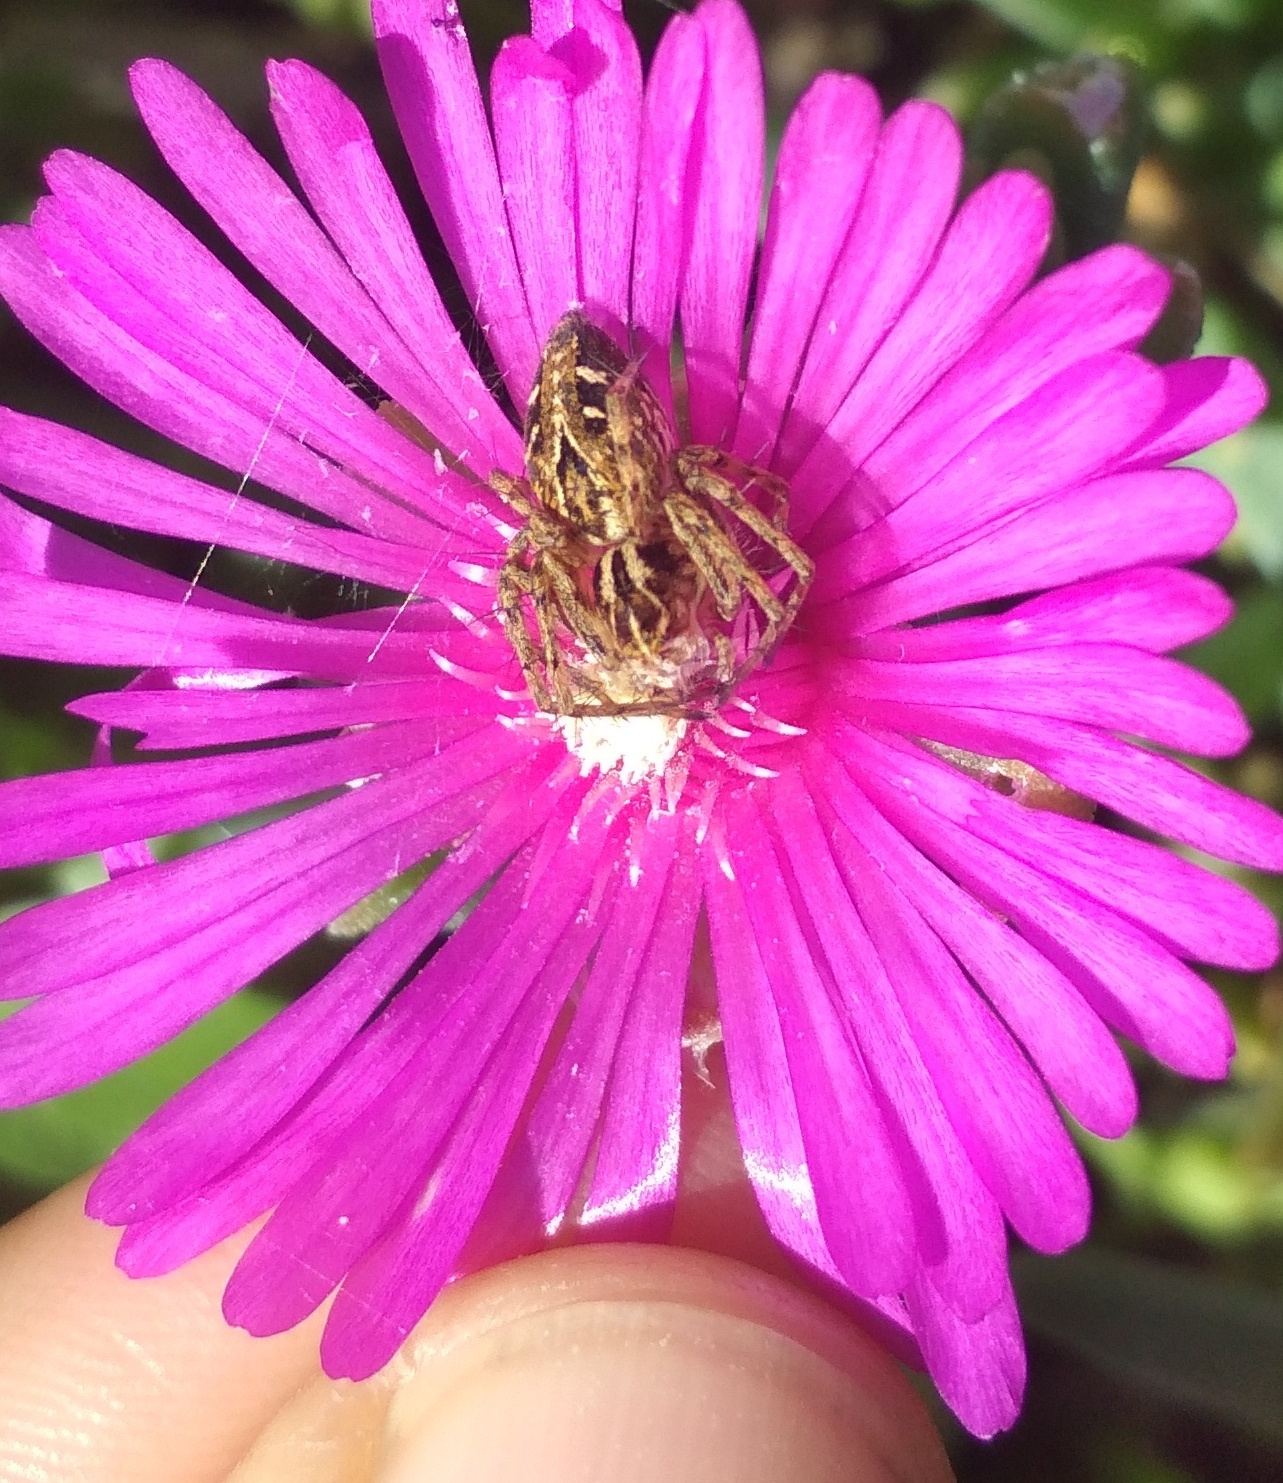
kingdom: Animalia
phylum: Arthropoda
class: Arachnida
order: Araneae
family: Oxyopidae
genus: Oxyopes
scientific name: Oxyopes heterophthalmus
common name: Lynx spider
